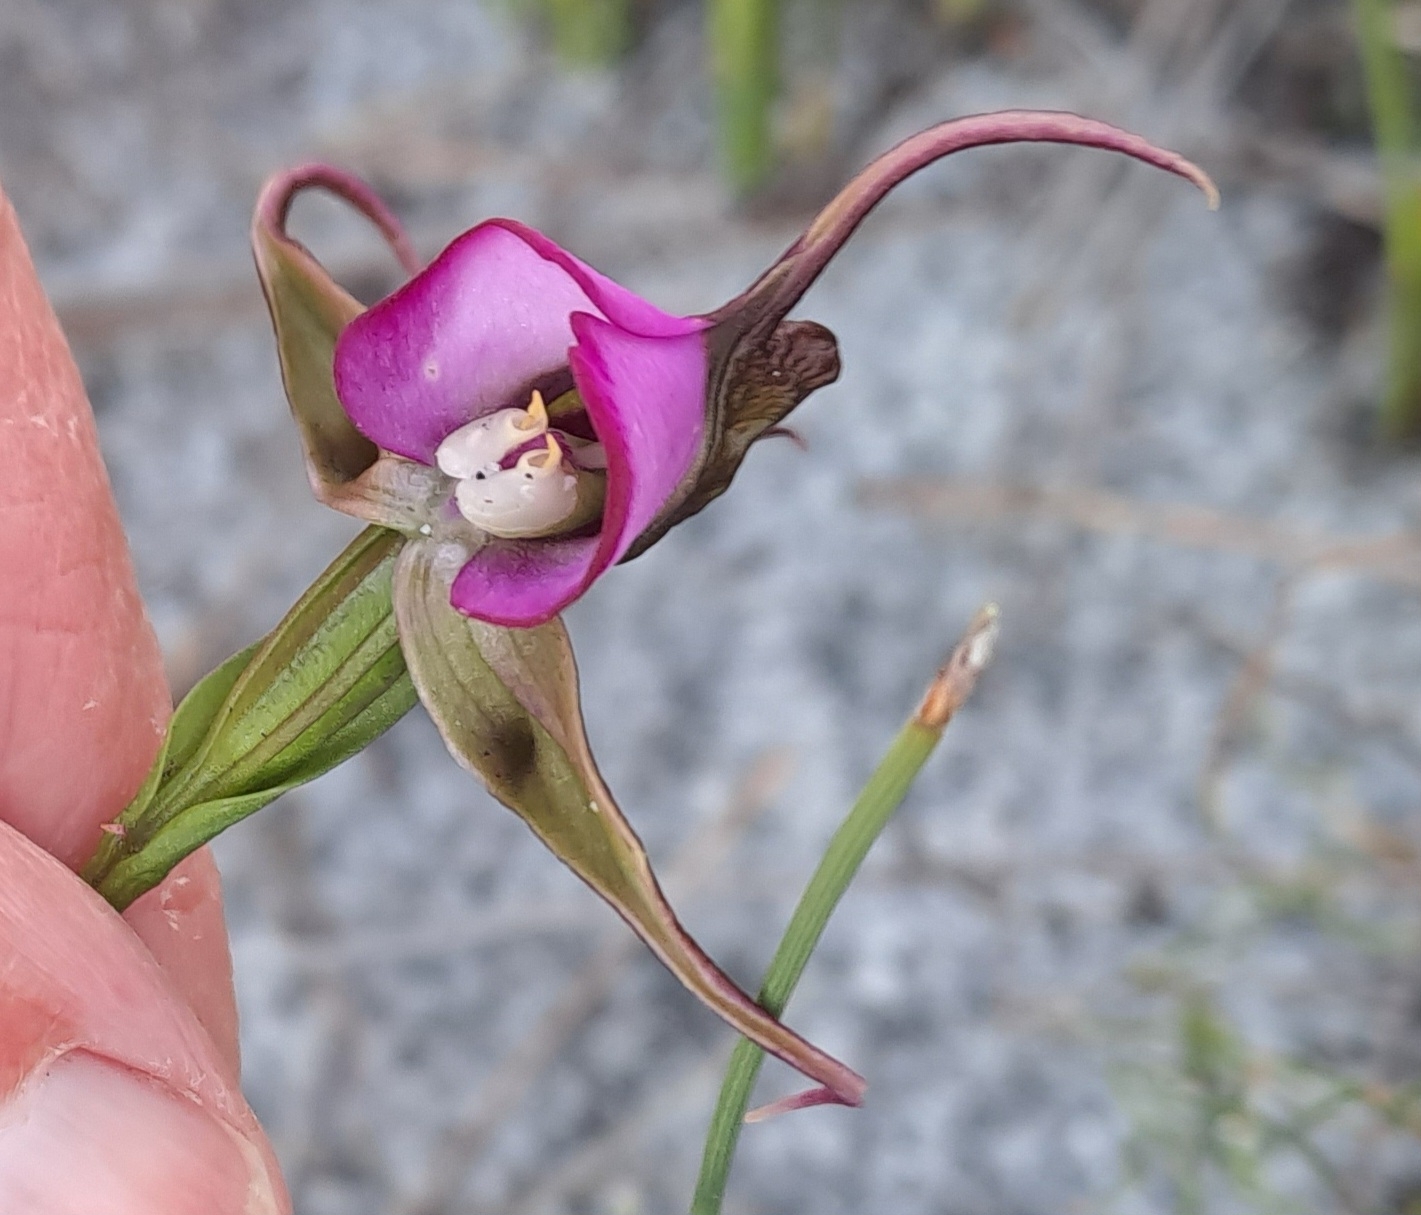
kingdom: Plantae
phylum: Tracheophyta
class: Liliopsida
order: Asparagales
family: Orchidaceae
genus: Disperis
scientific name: Disperis capensis
